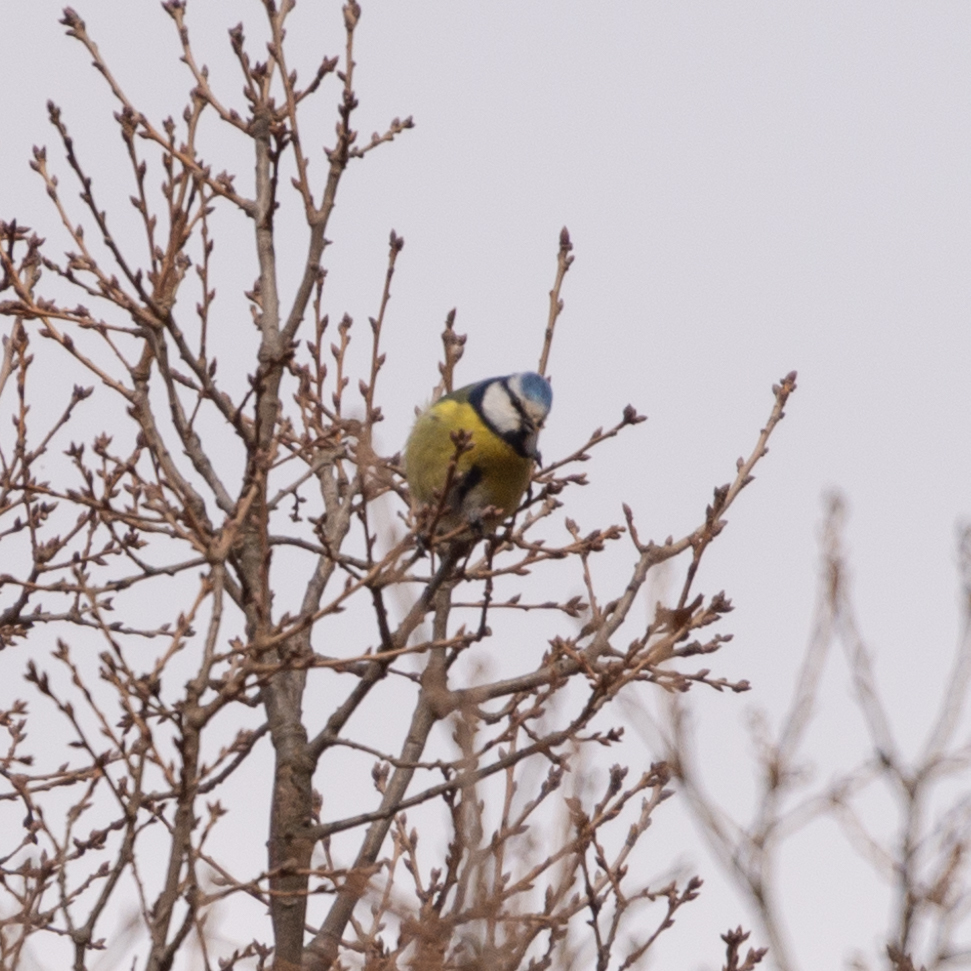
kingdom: Animalia
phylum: Chordata
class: Aves
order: Passeriformes
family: Paridae
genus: Cyanistes
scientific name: Cyanistes caeruleus
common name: Eurasian blue tit
